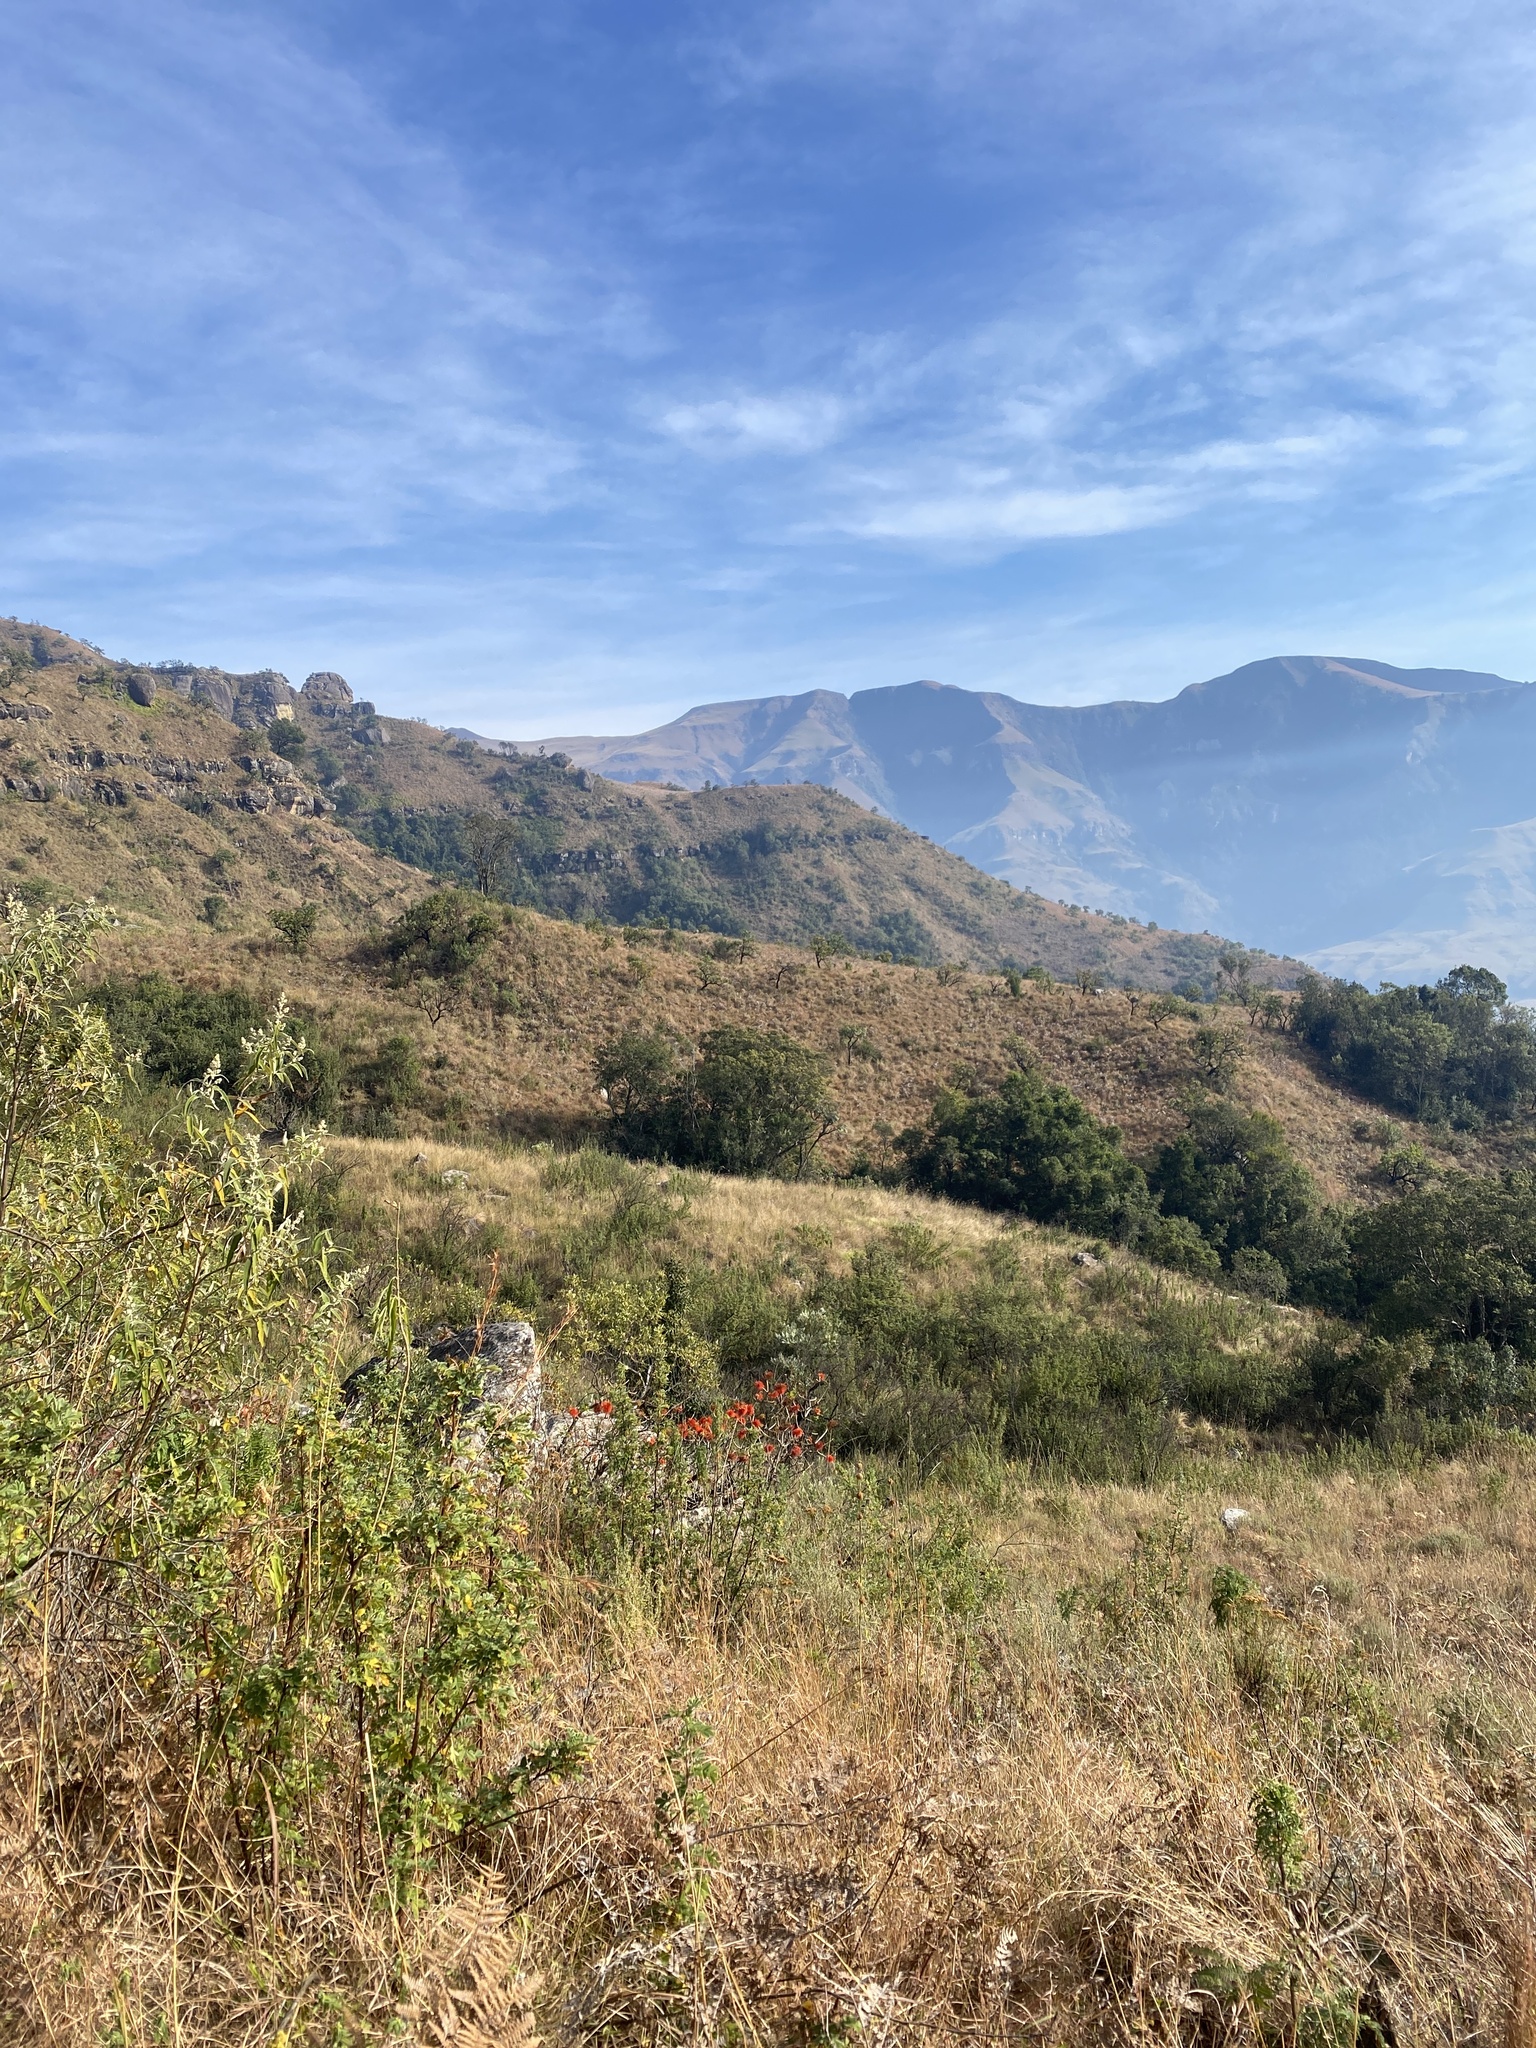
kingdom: Plantae
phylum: Tracheophyta
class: Magnoliopsida
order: Geraniales
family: Francoaceae
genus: Greyia
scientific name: Greyia sutherlandii
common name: Glossy bottlebrush
